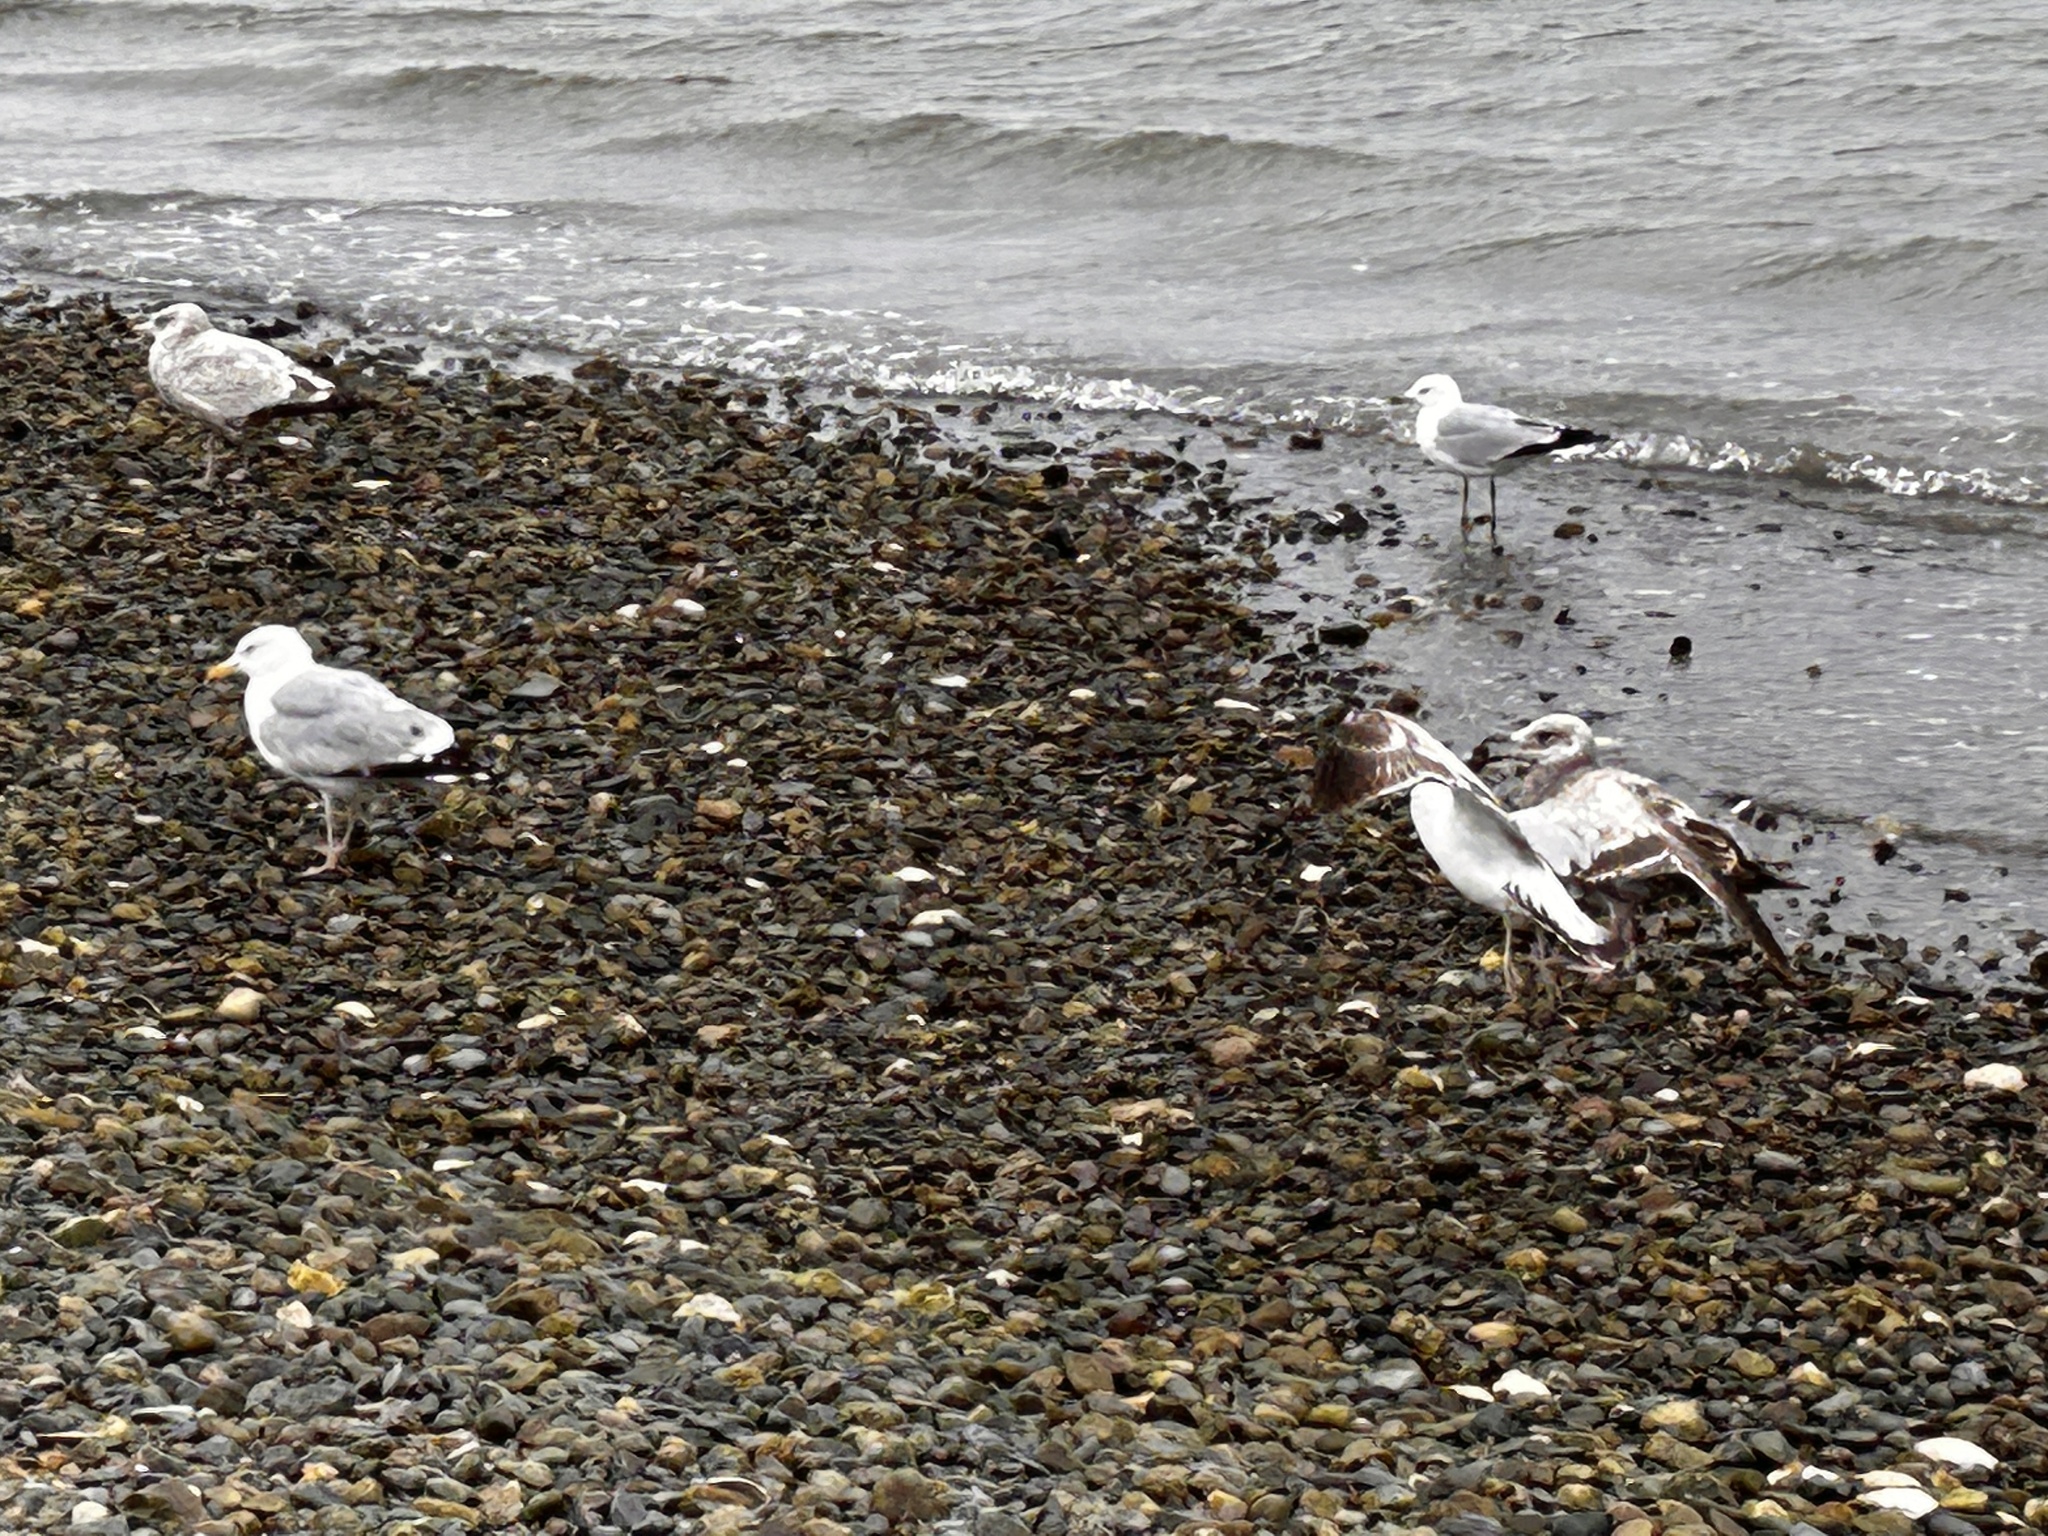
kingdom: Animalia
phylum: Chordata
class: Aves
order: Charadriiformes
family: Laridae
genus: Larus
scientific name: Larus argentatus
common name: Herring gull
